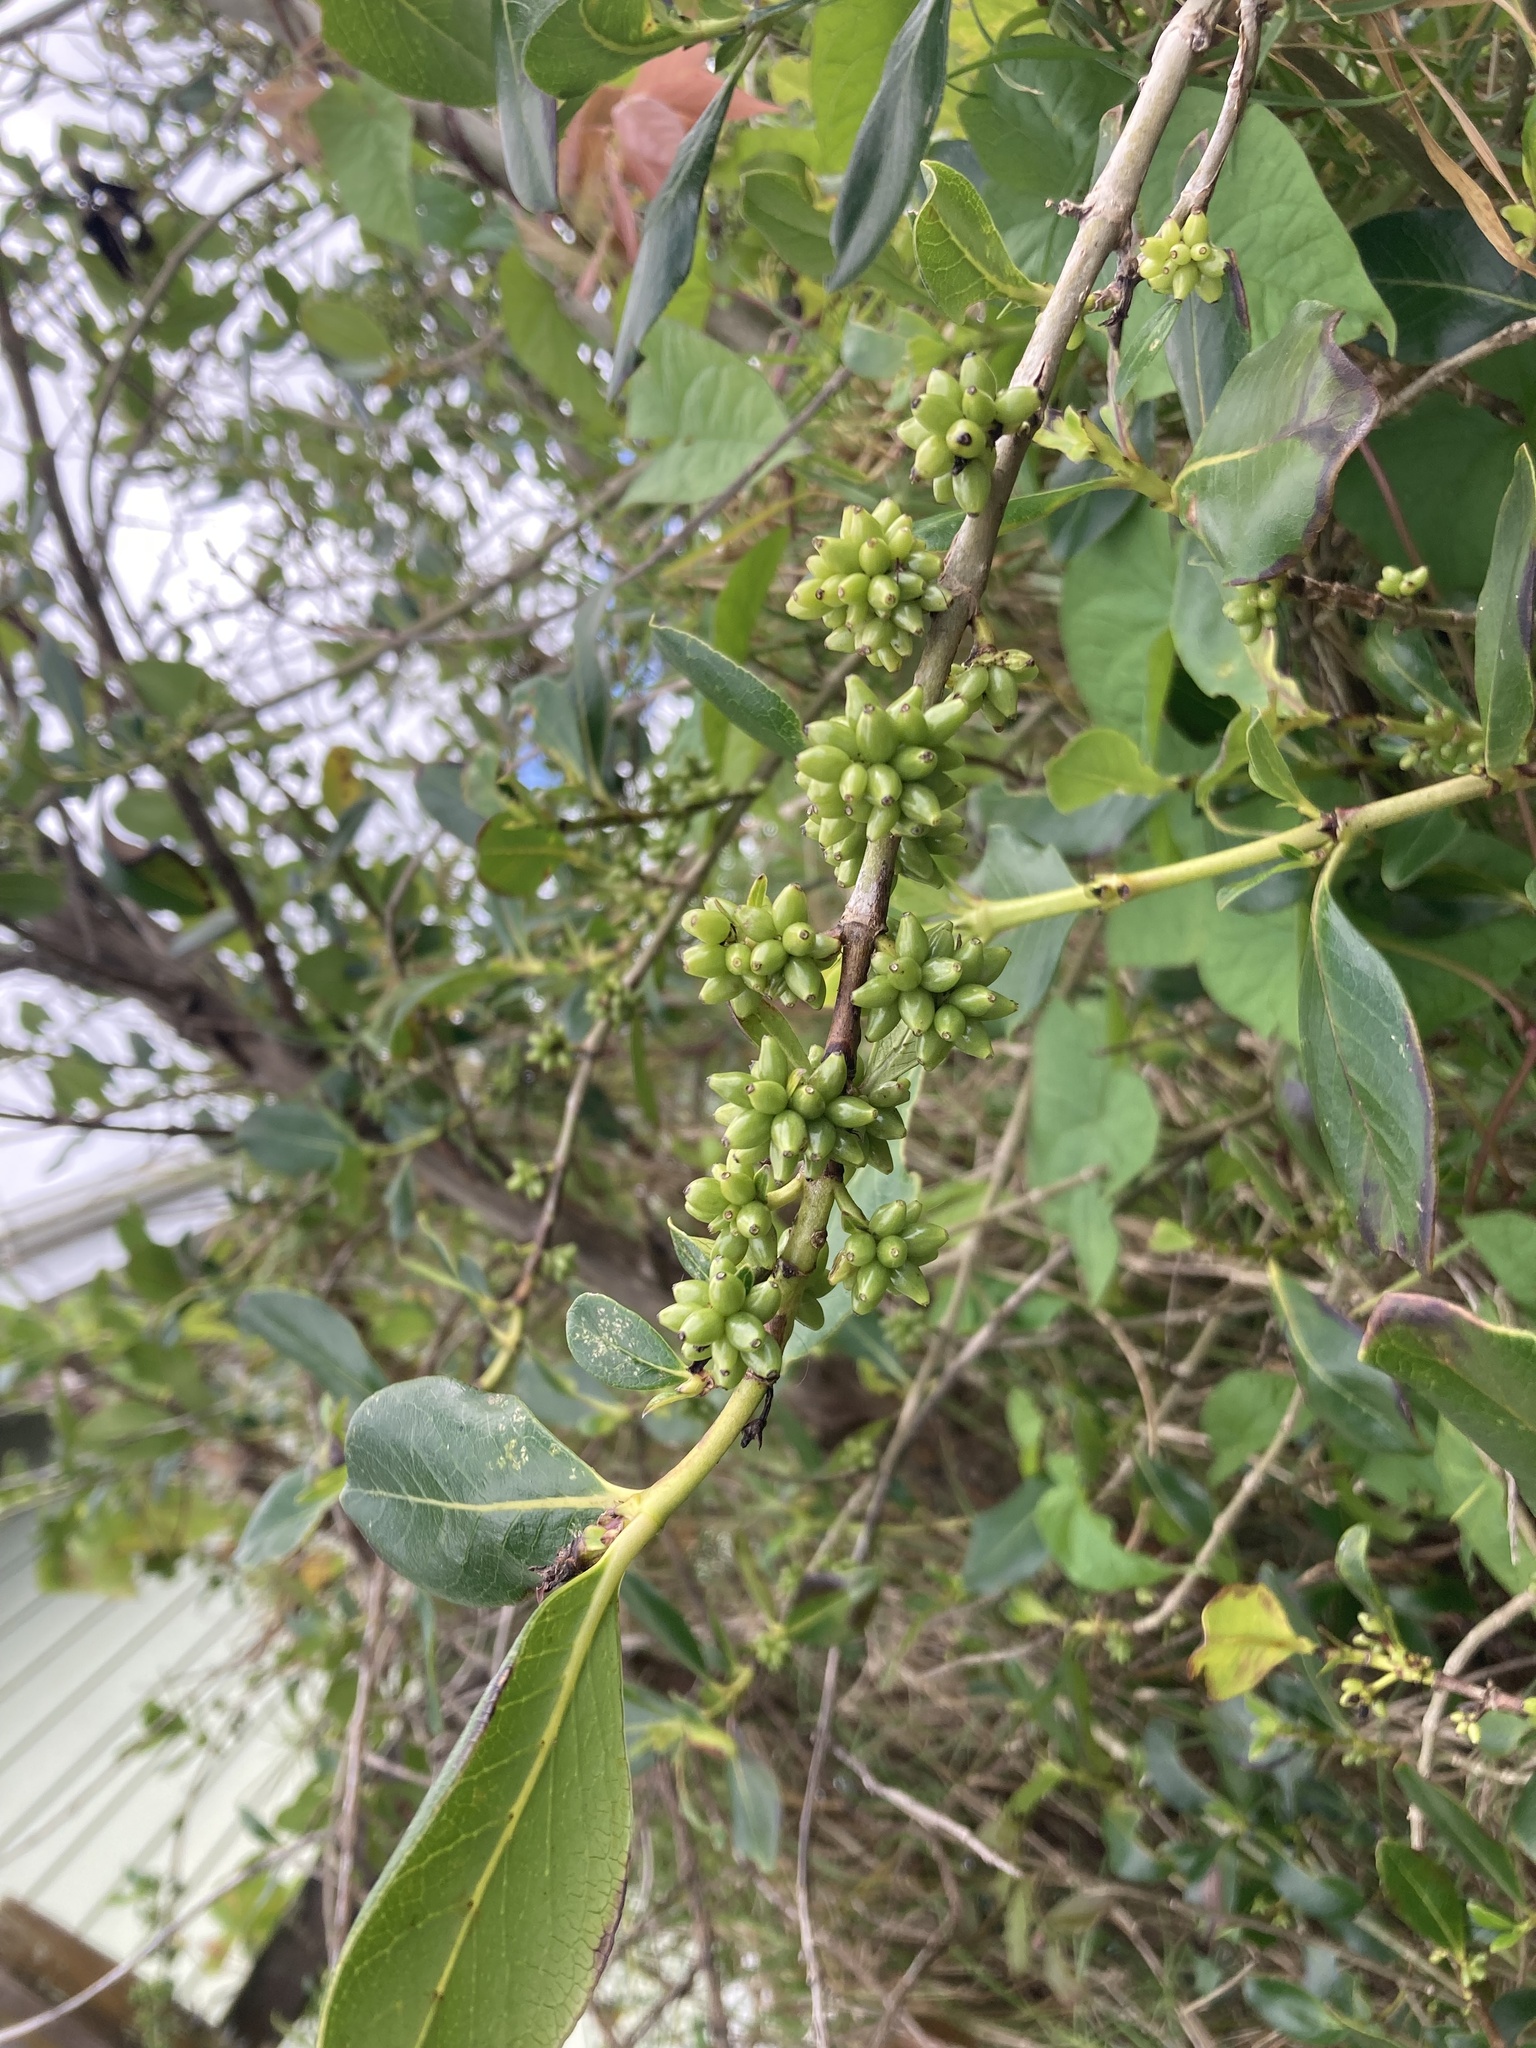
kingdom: Plantae
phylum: Tracheophyta
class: Magnoliopsida
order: Gentianales
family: Rubiaceae
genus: Coprosma
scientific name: Coprosma robusta
